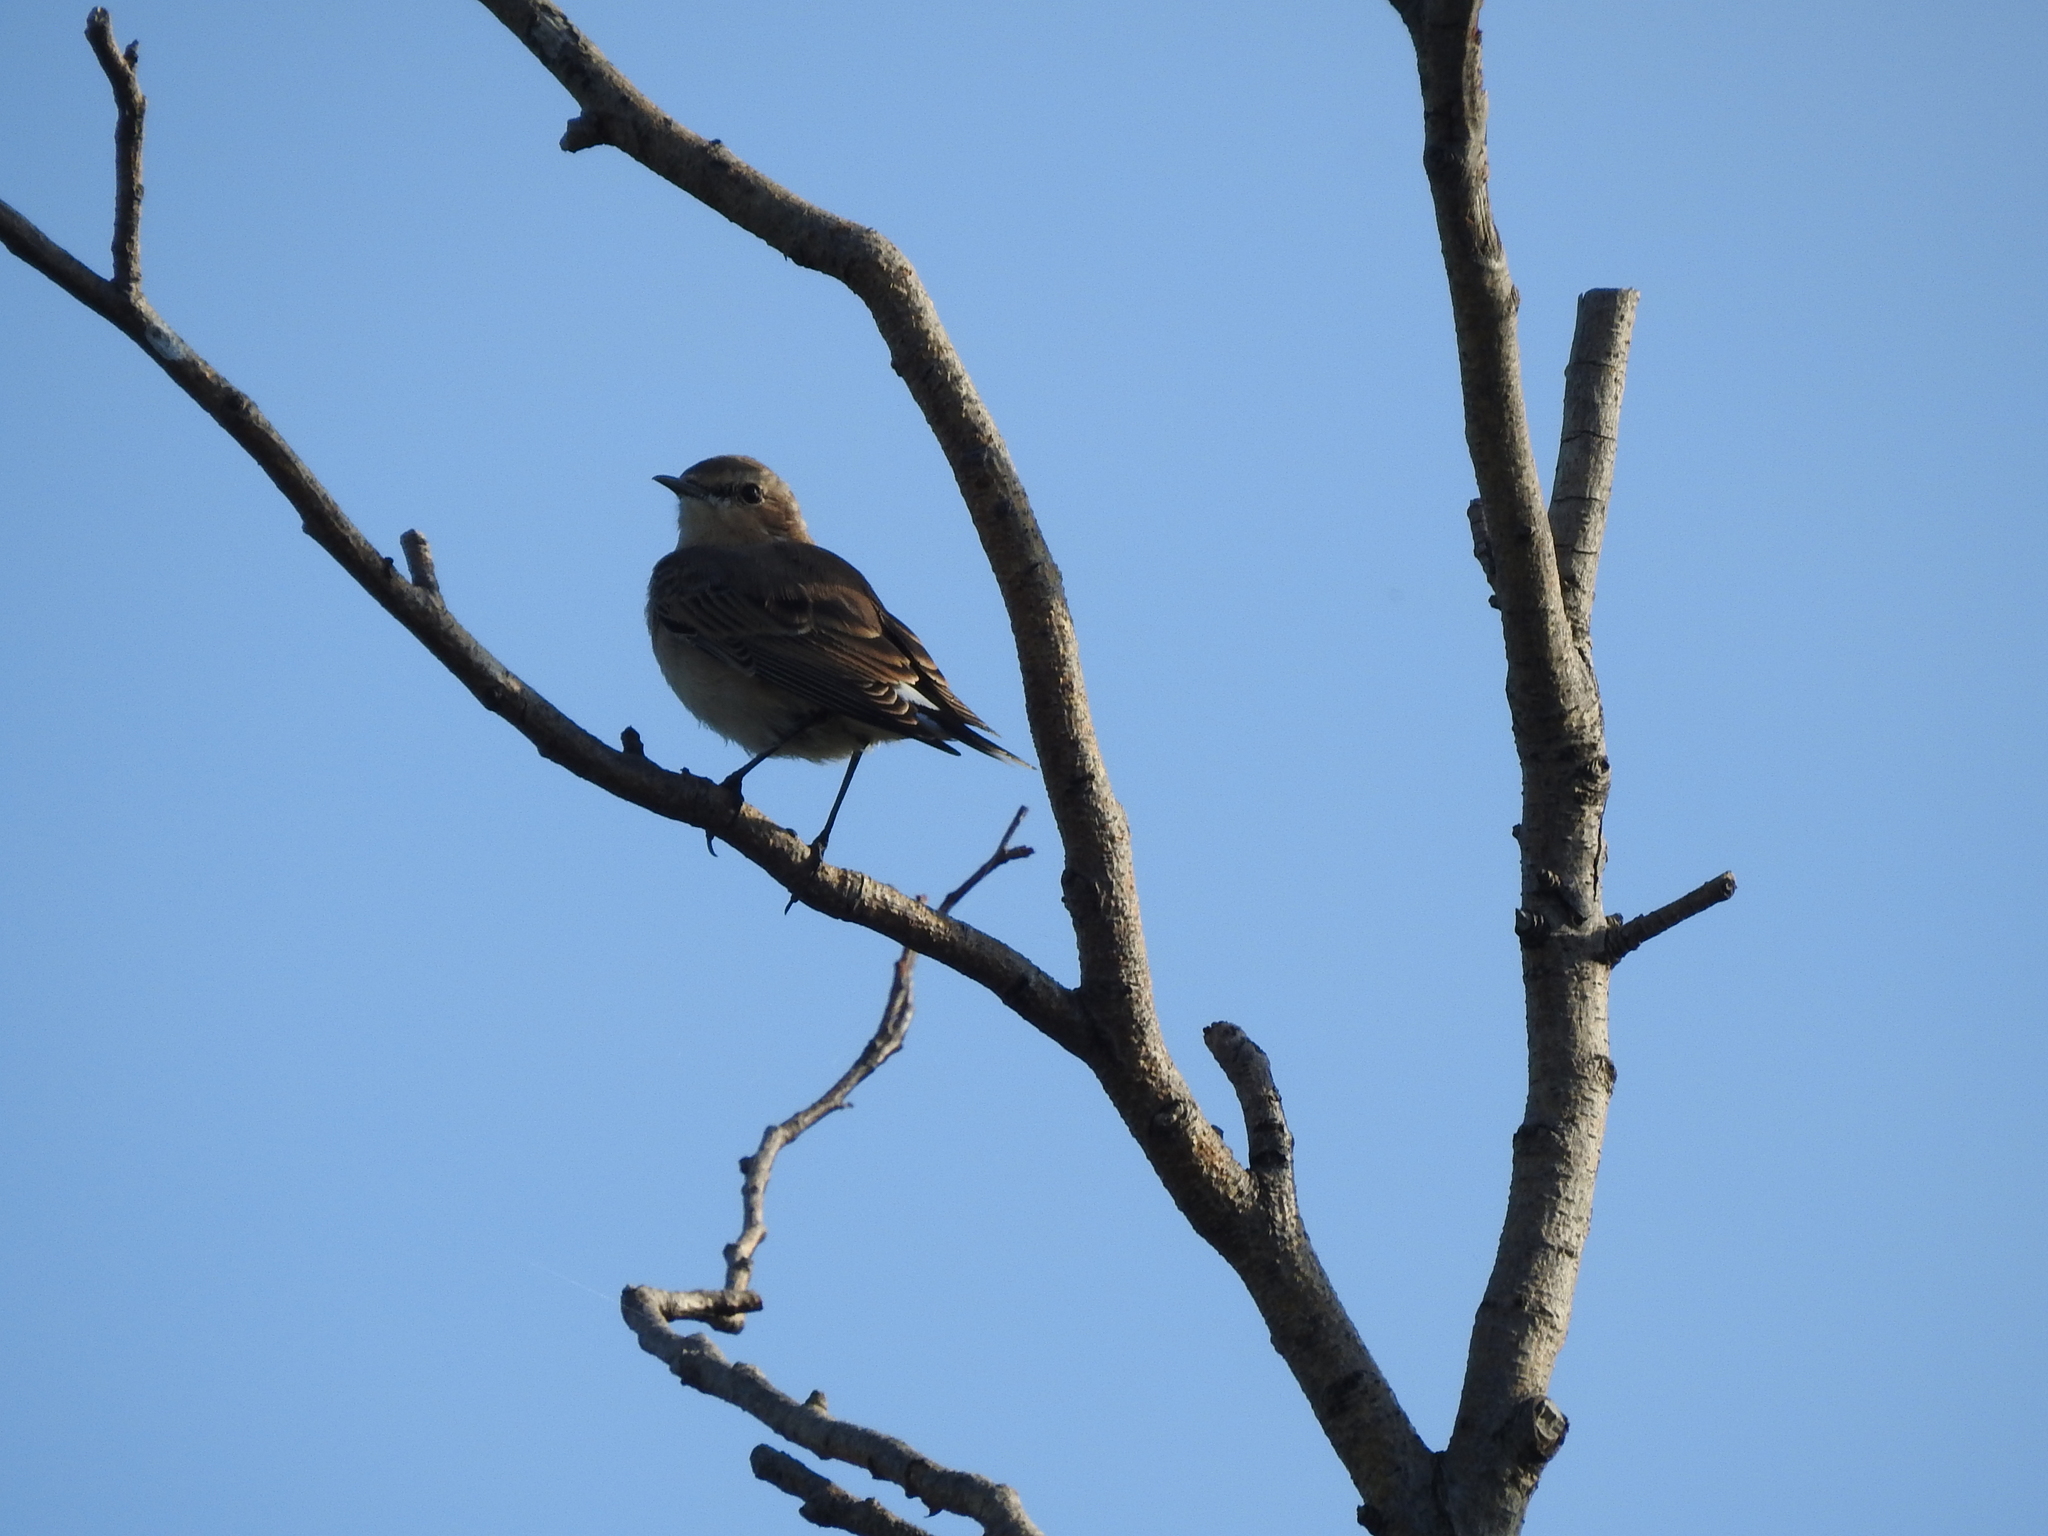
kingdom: Animalia
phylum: Chordata
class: Aves
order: Passeriformes
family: Muscicapidae
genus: Oenanthe
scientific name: Oenanthe oenanthe
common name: Northern wheatear
